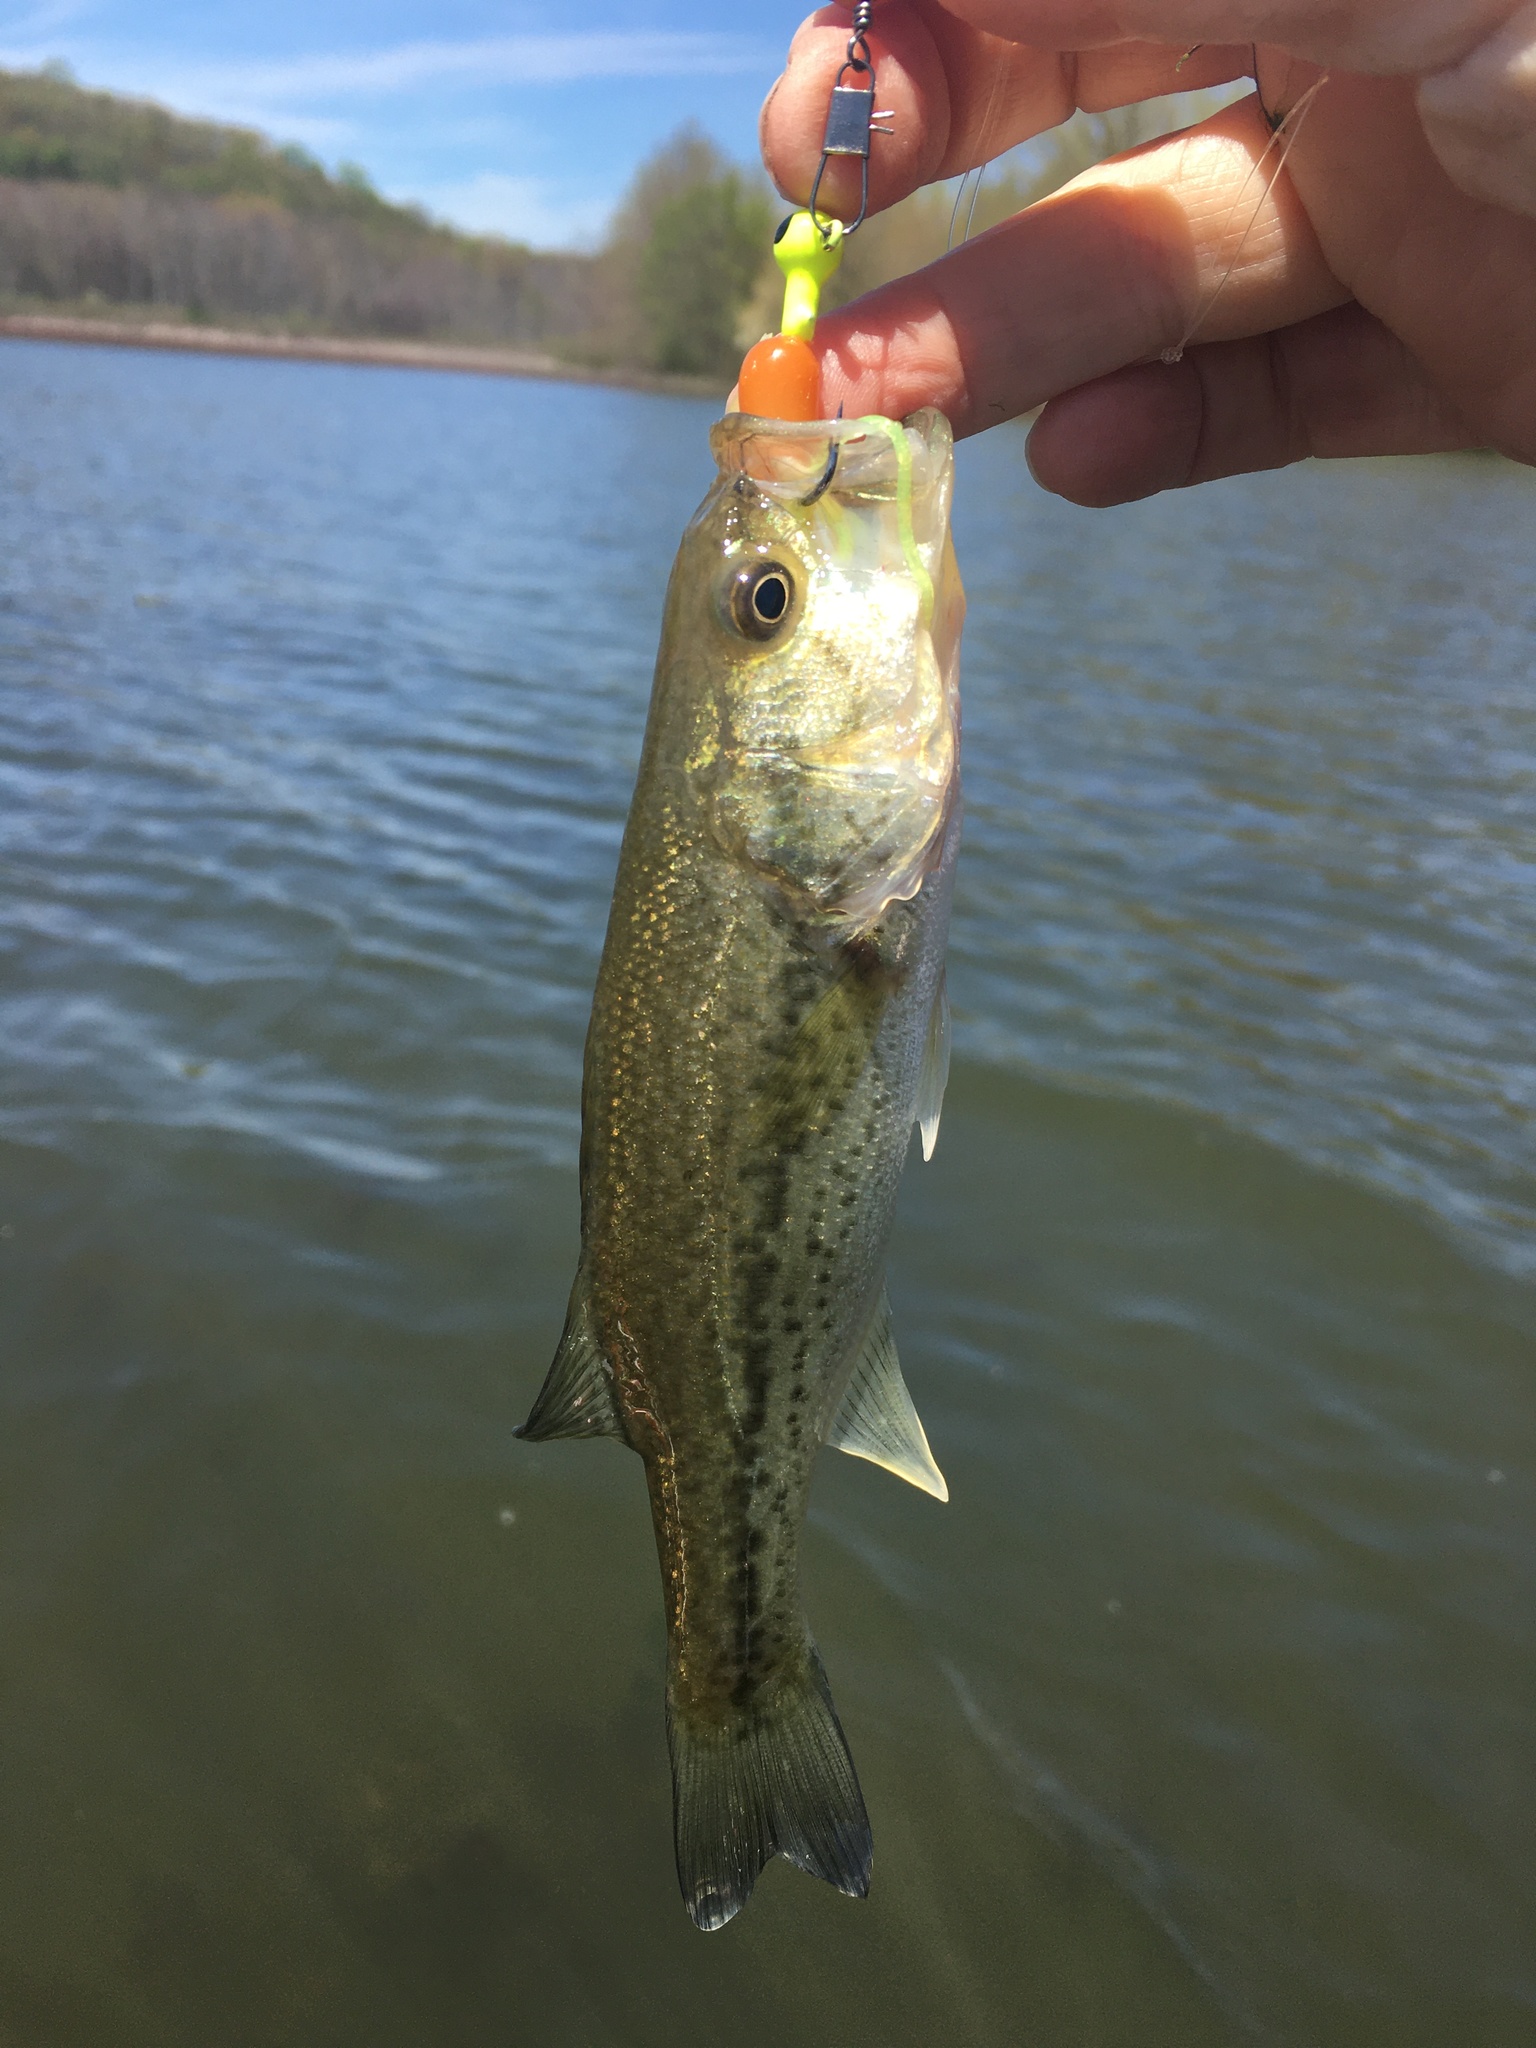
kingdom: Animalia
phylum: Chordata
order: Perciformes
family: Centrarchidae
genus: Micropterus
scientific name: Micropterus
